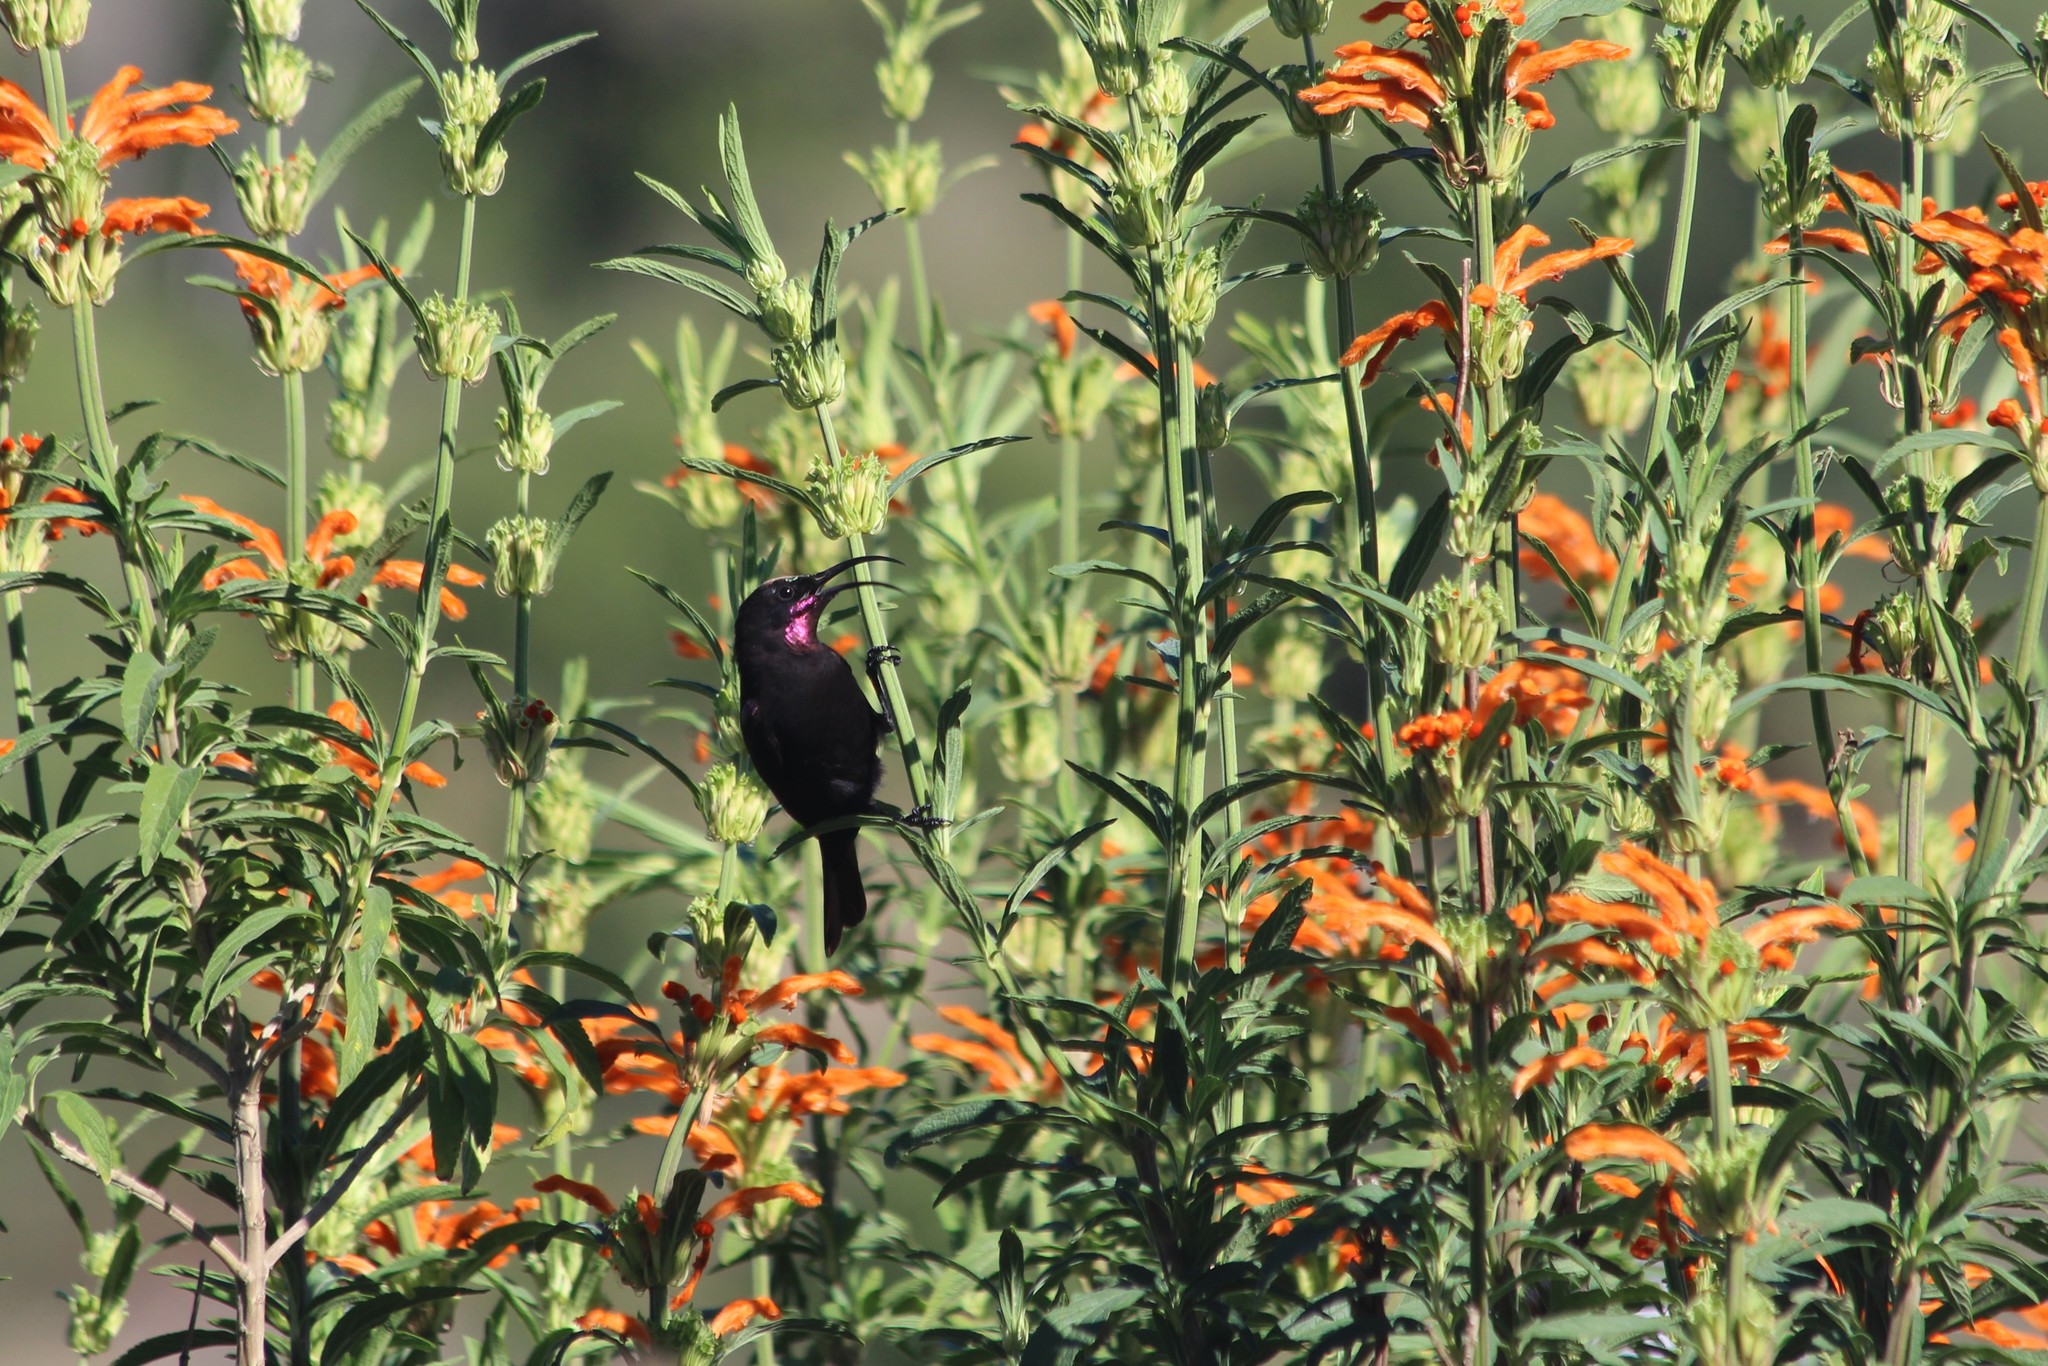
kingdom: Animalia
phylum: Chordata
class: Aves
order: Passeriformes
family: Nectariniidae
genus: Chalcomitra
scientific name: Chalcomitra amethystina
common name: Amethyst sunbird
